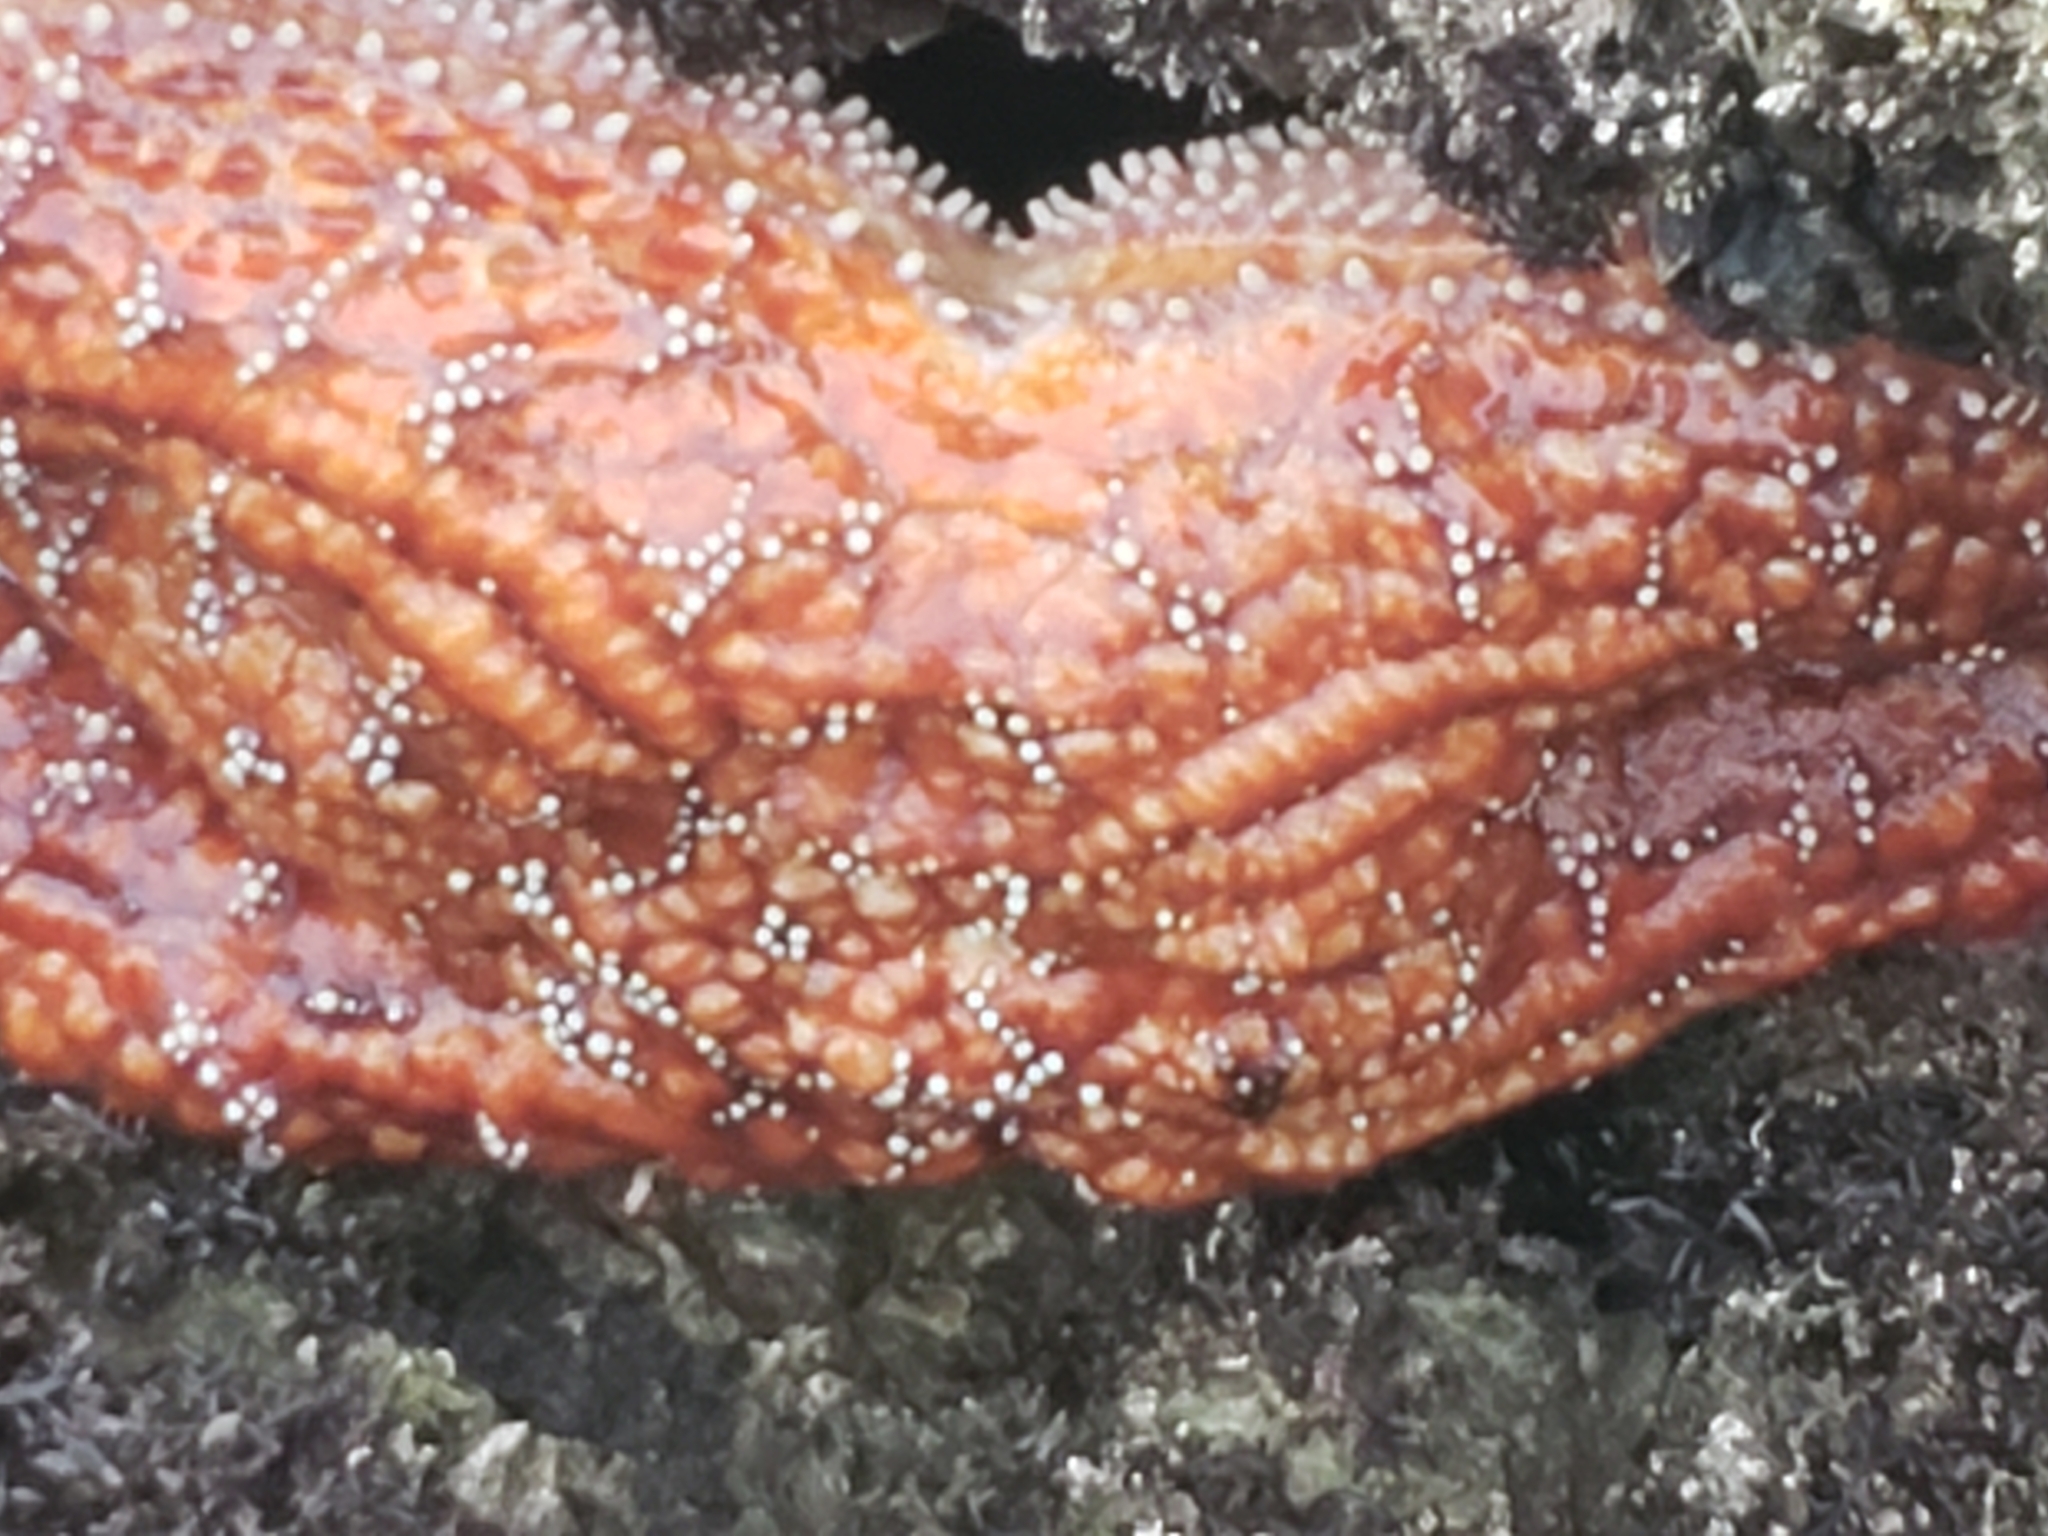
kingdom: Animalia
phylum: Echinodermata
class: Asteroidea
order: Forcipulatida
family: Asteriidae
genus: Pisaster
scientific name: Pisaster ochraceus
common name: Ochre stars
